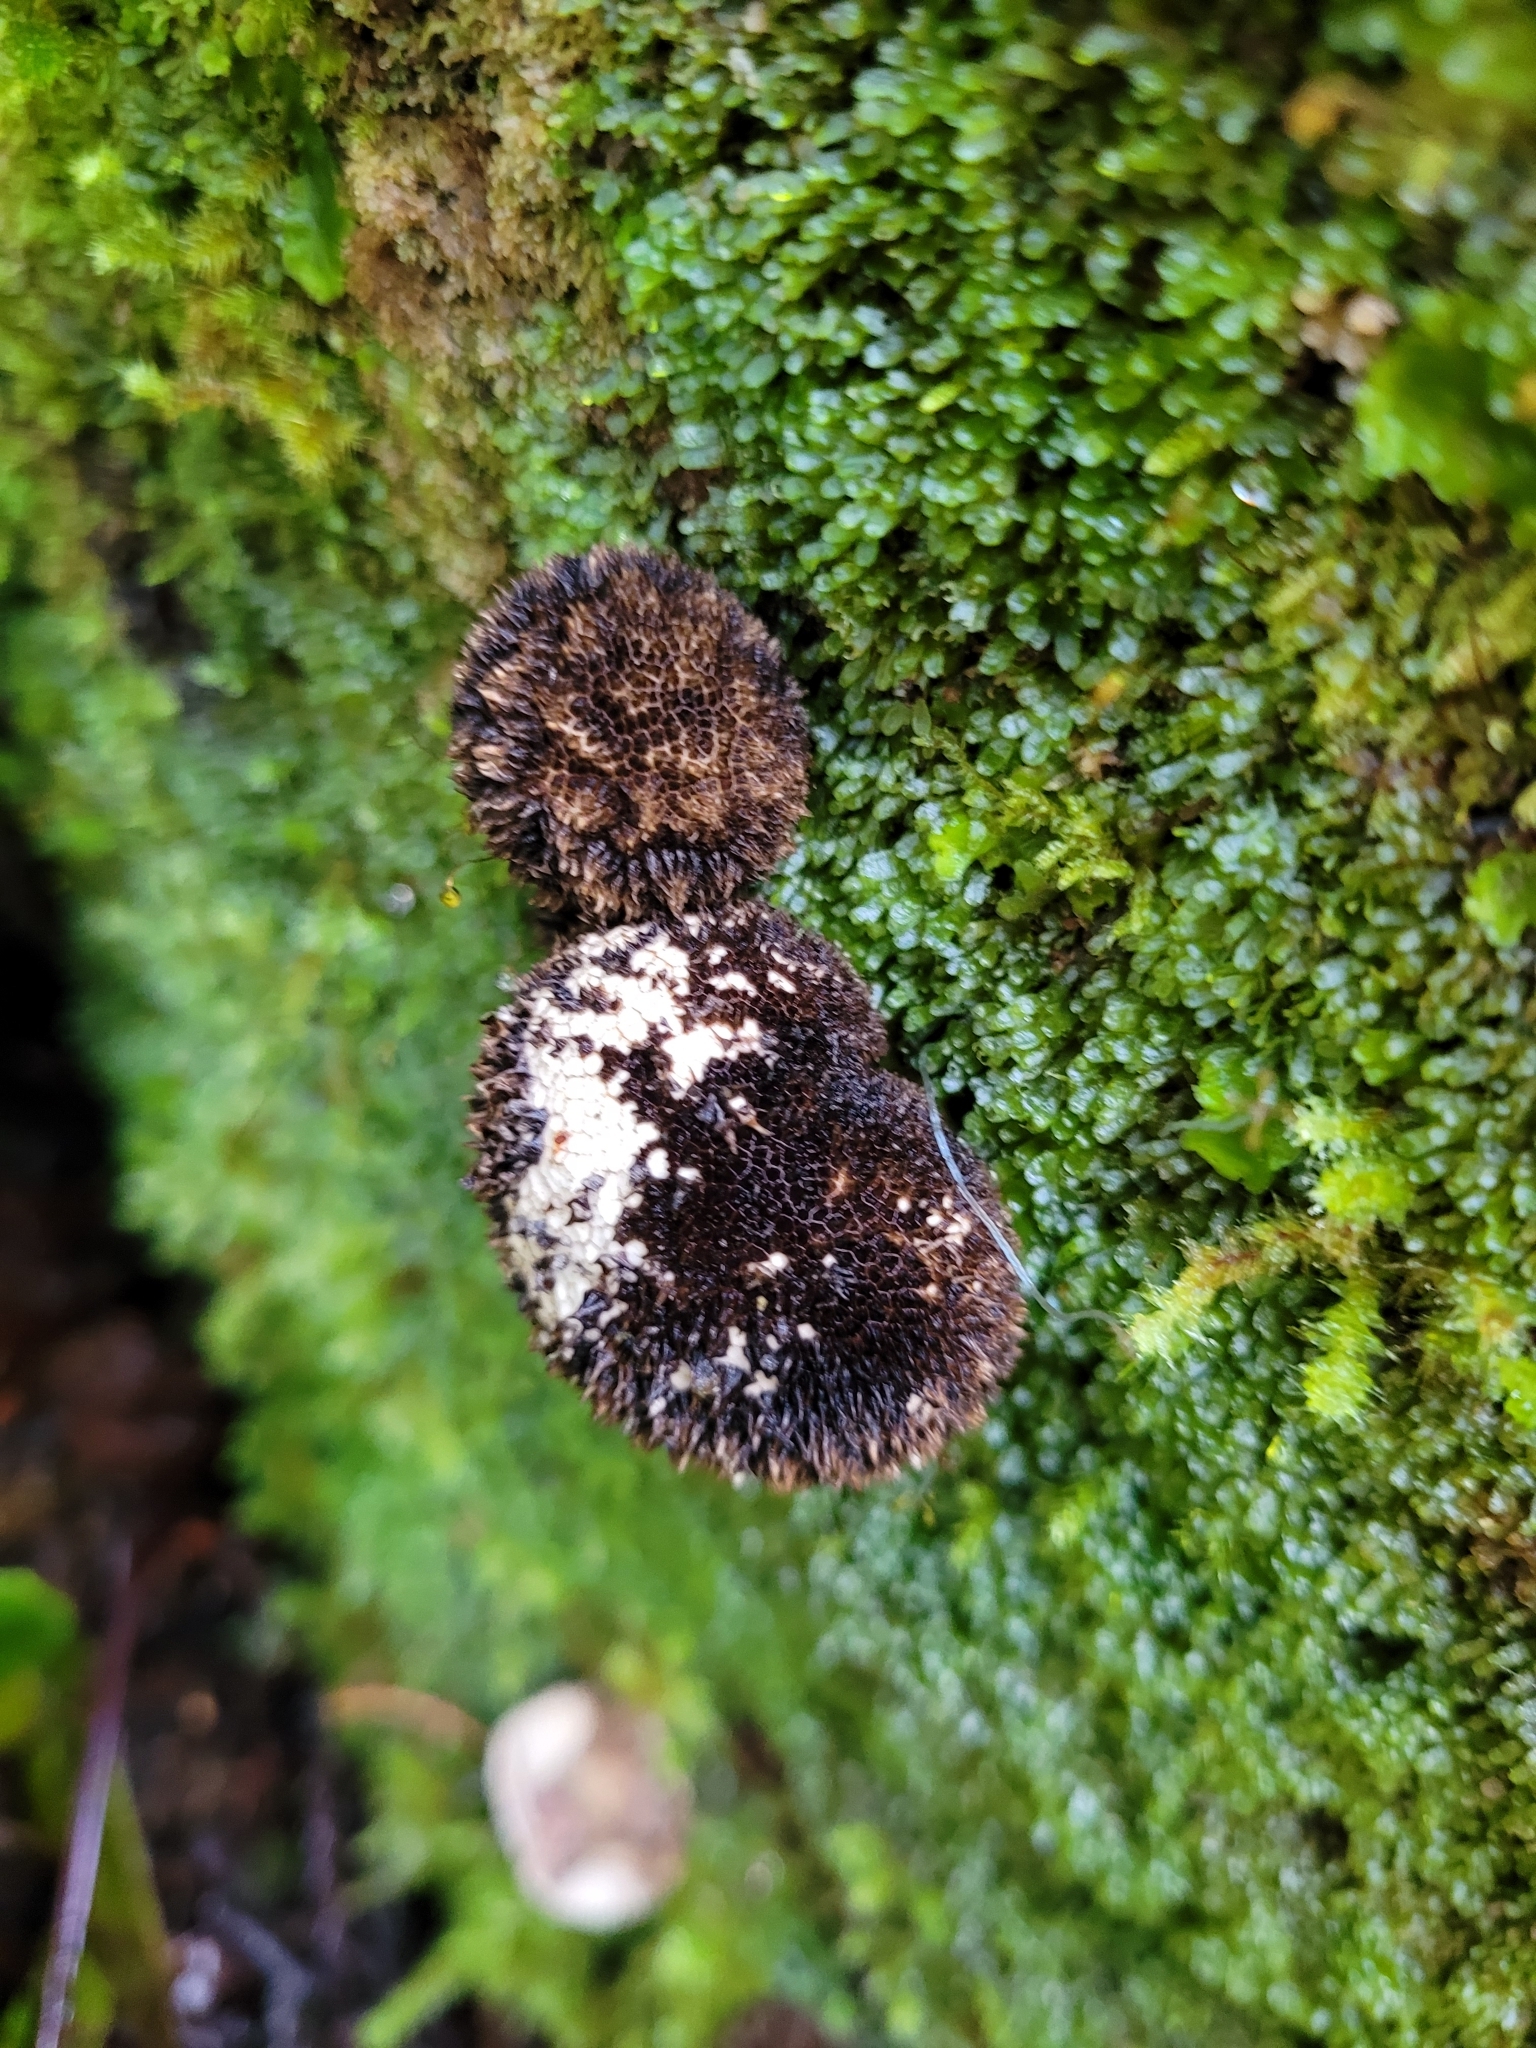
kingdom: Fungi
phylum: Basidiomycota
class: Agaricomycetes
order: Agaricales
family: Lycoperdaceae
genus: Lycoperdon
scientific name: Lycoperdon compactum
